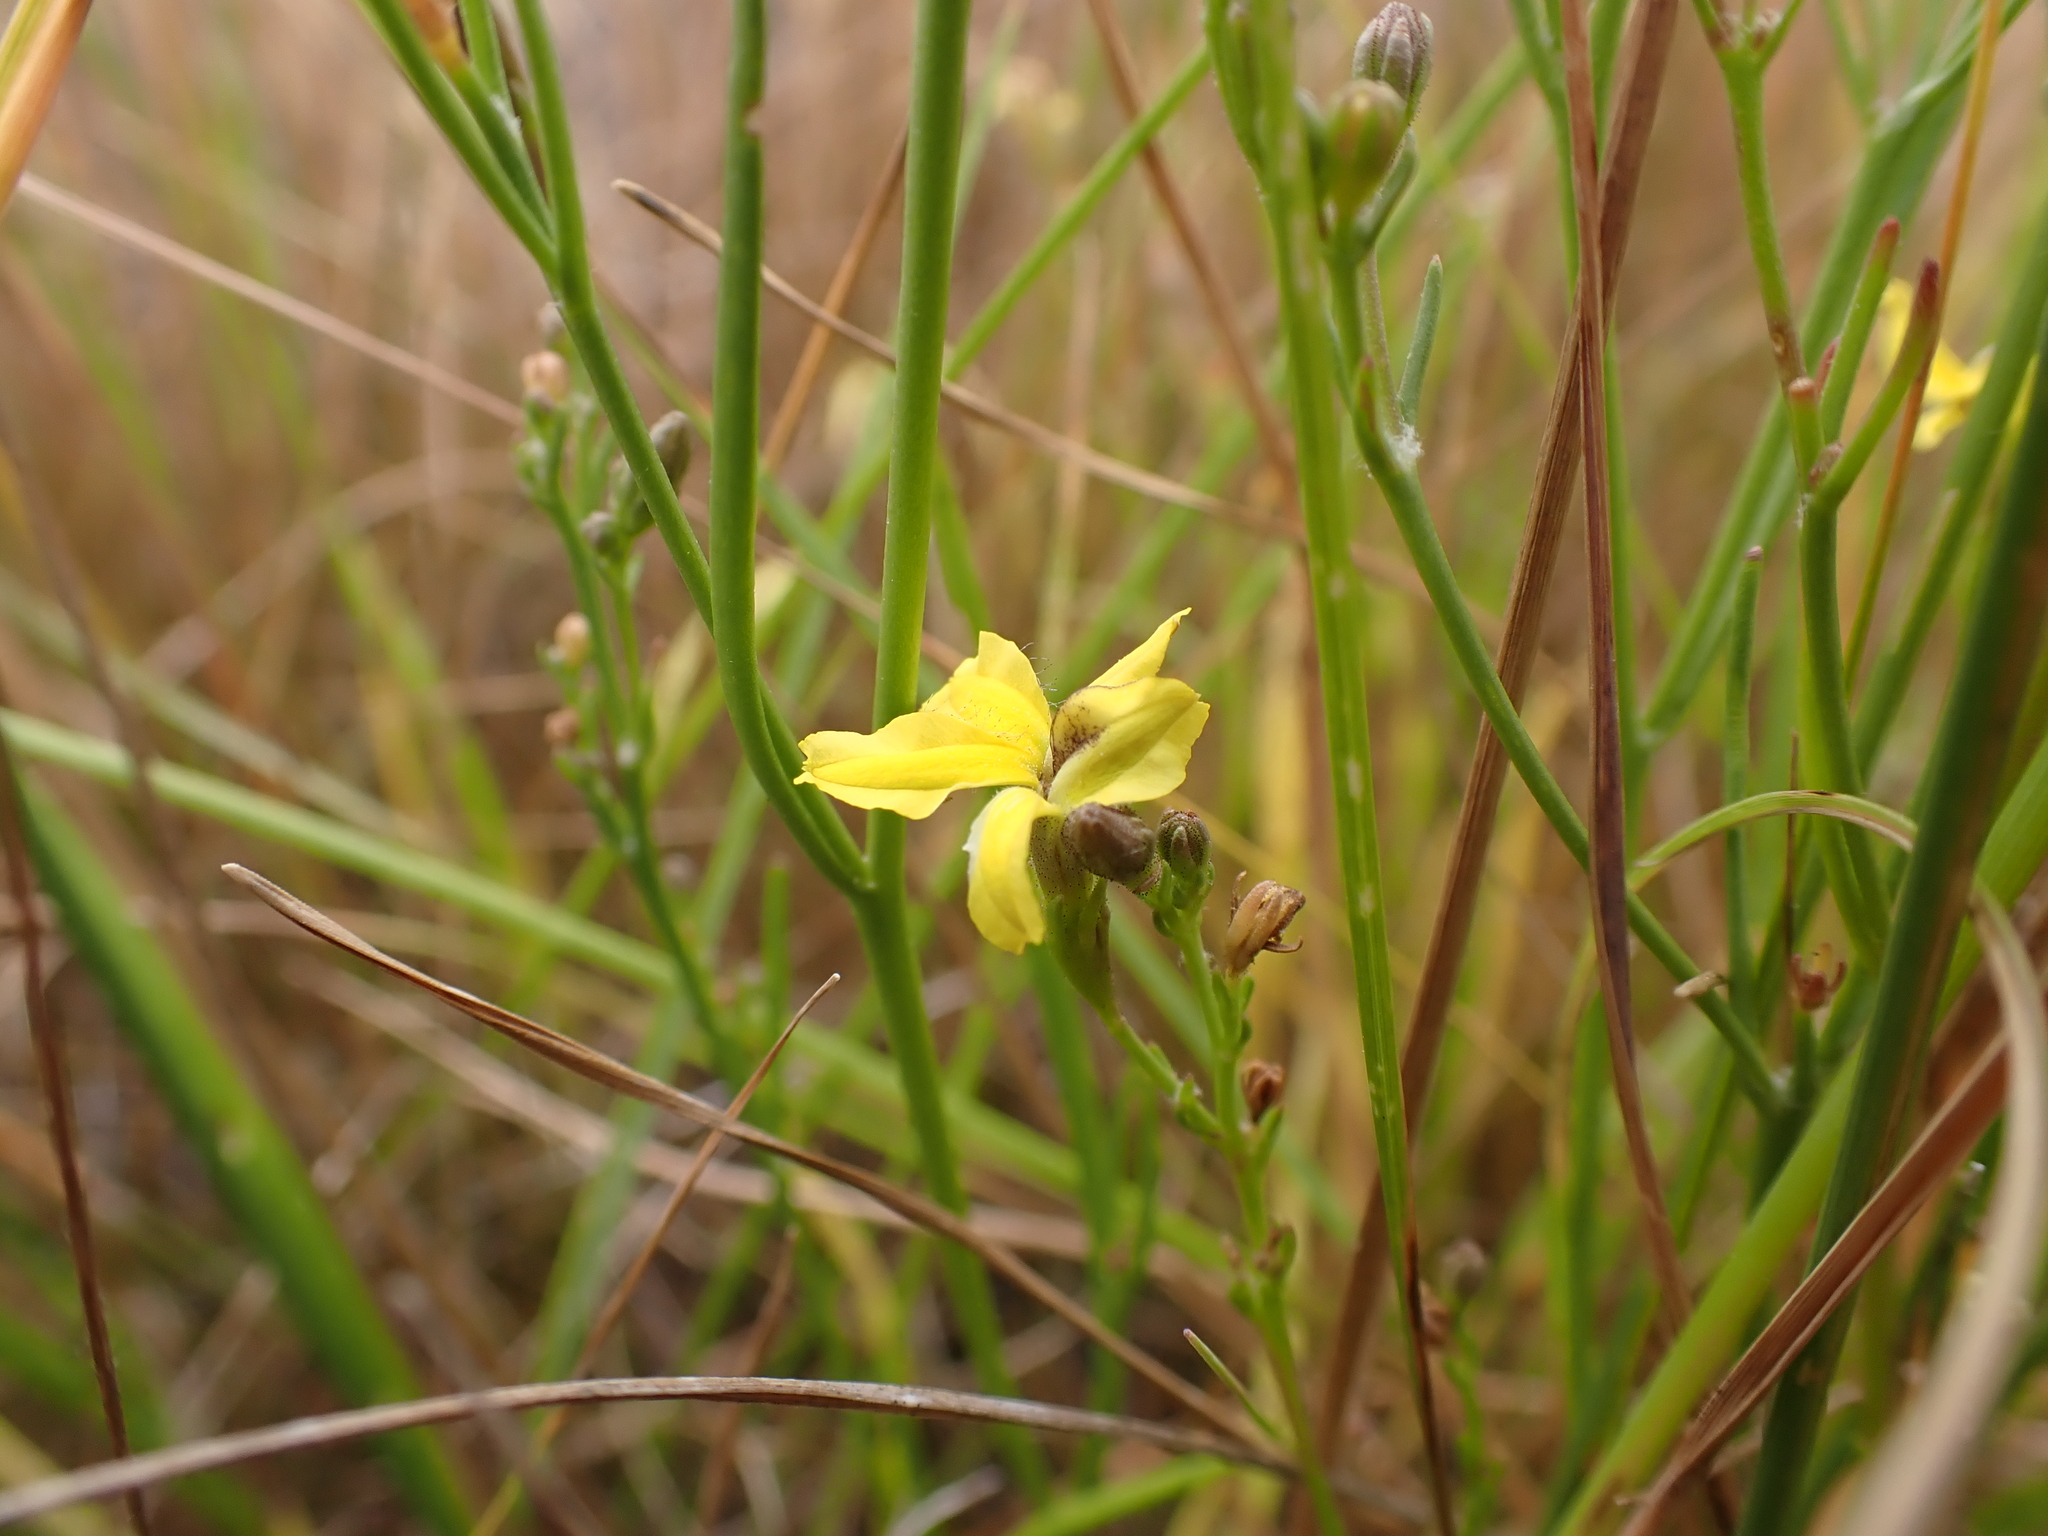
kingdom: Plantae
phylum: Tracheophyta
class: Magnoliopsida
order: Asterales
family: Goodeniaceae
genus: Goodenia
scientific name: Goodenia gracilis
